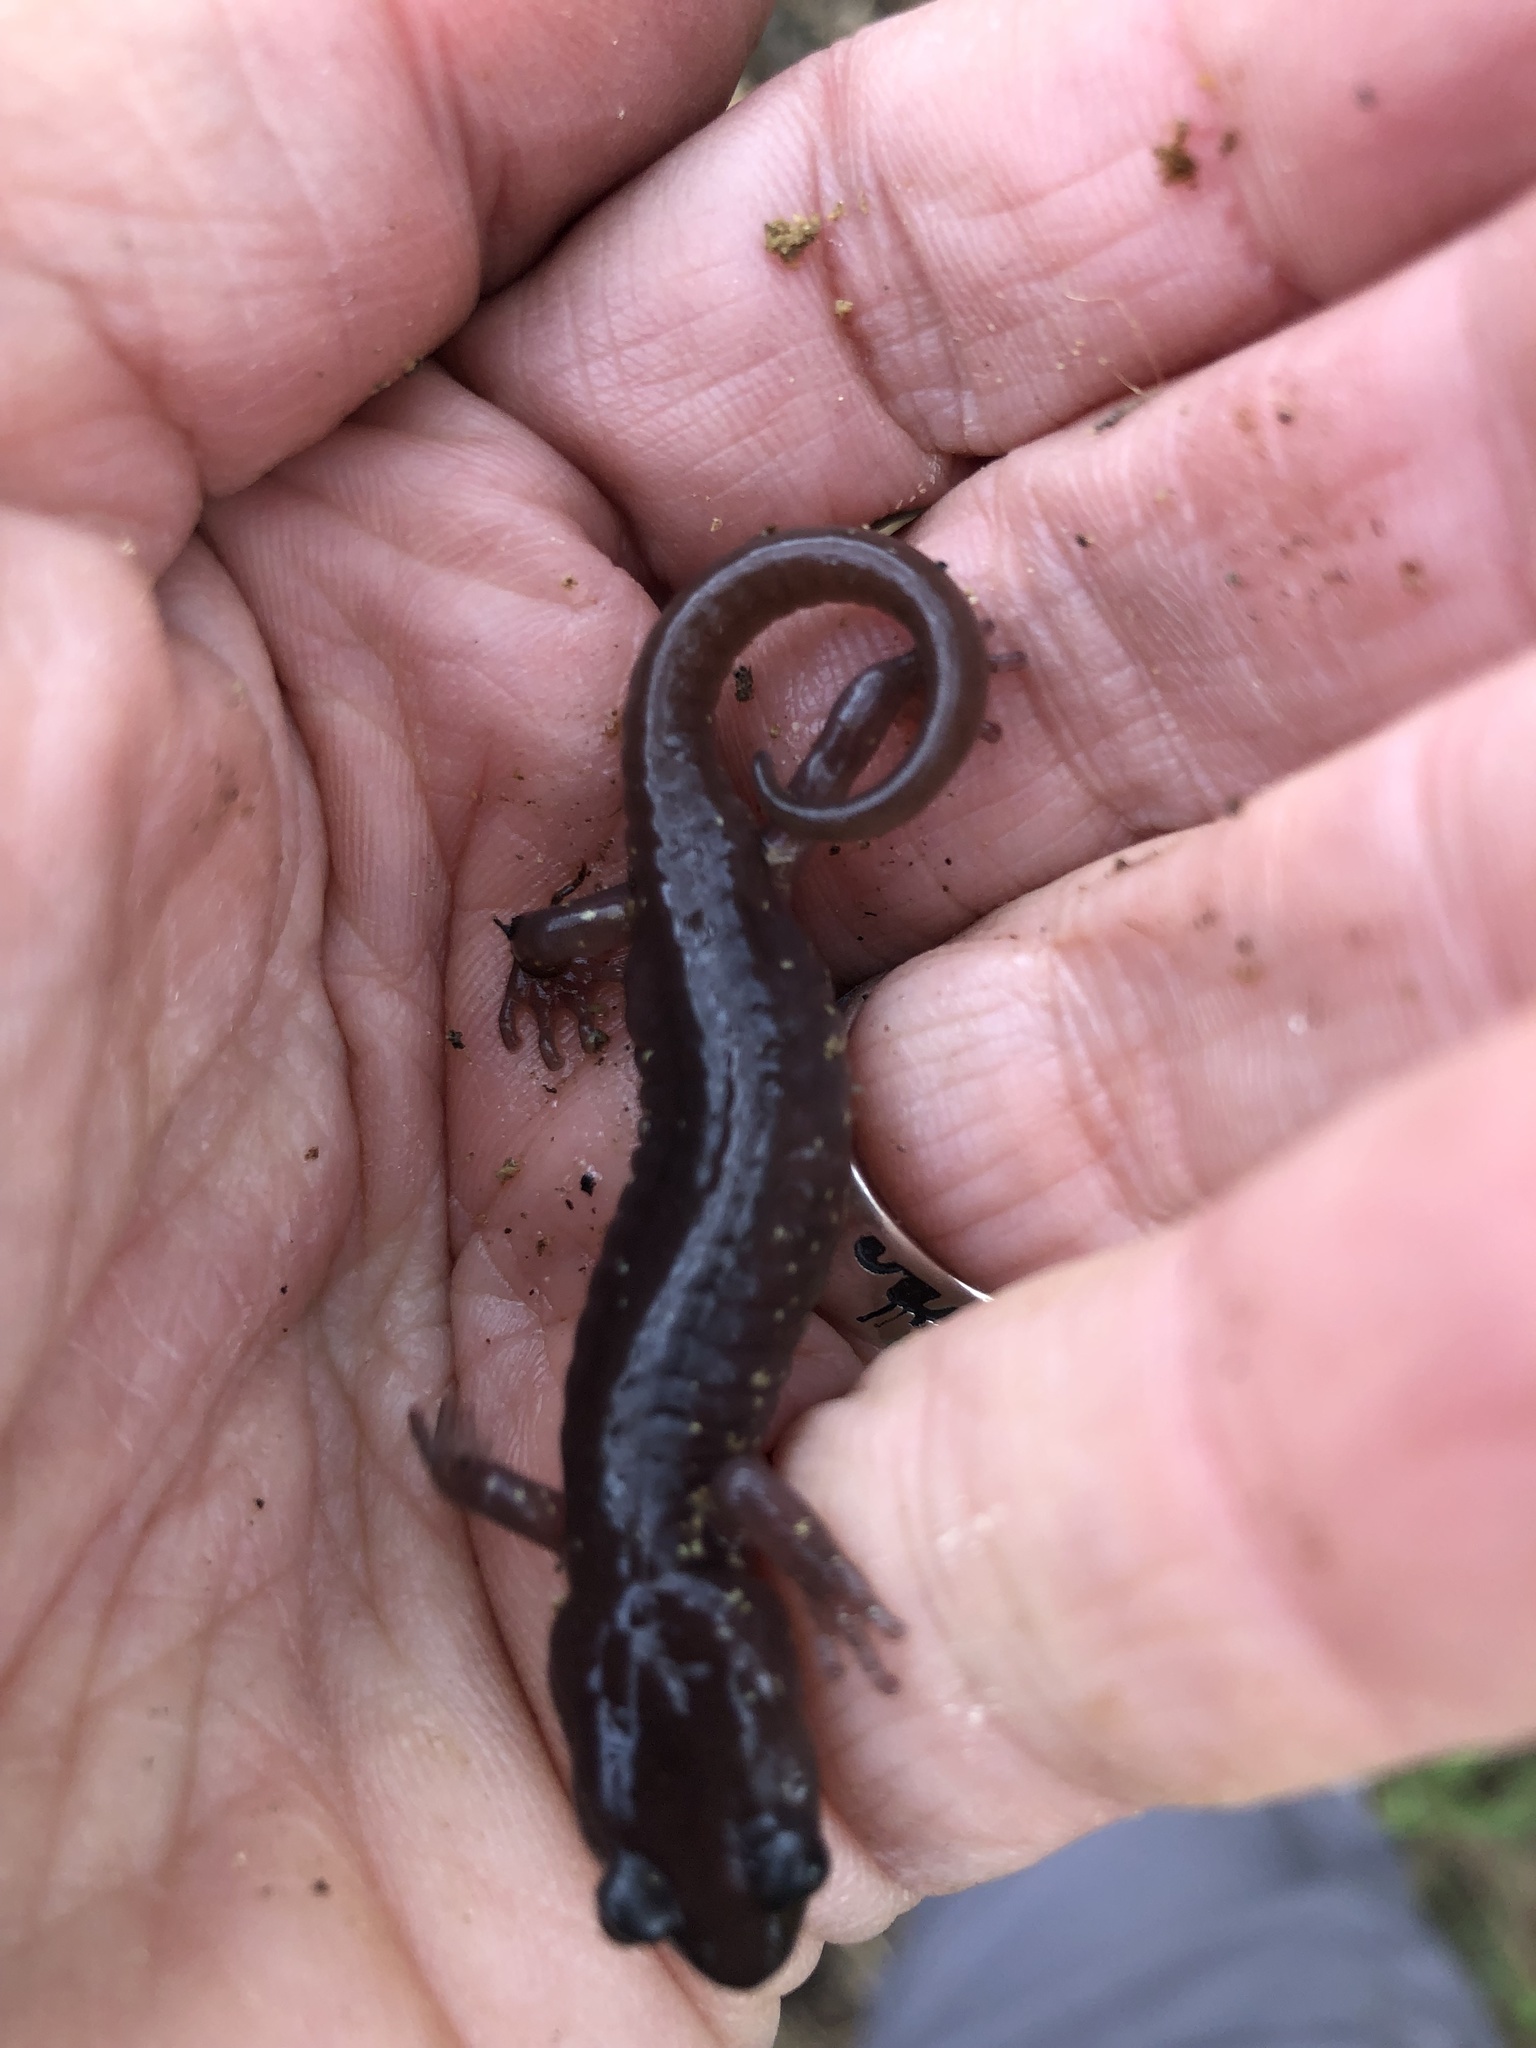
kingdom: Animalia
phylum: Chordata
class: Amphibia
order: Caudata
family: Plethodontidae
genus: Aneides
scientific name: Aneides lugubris
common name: Arboreal salamander
